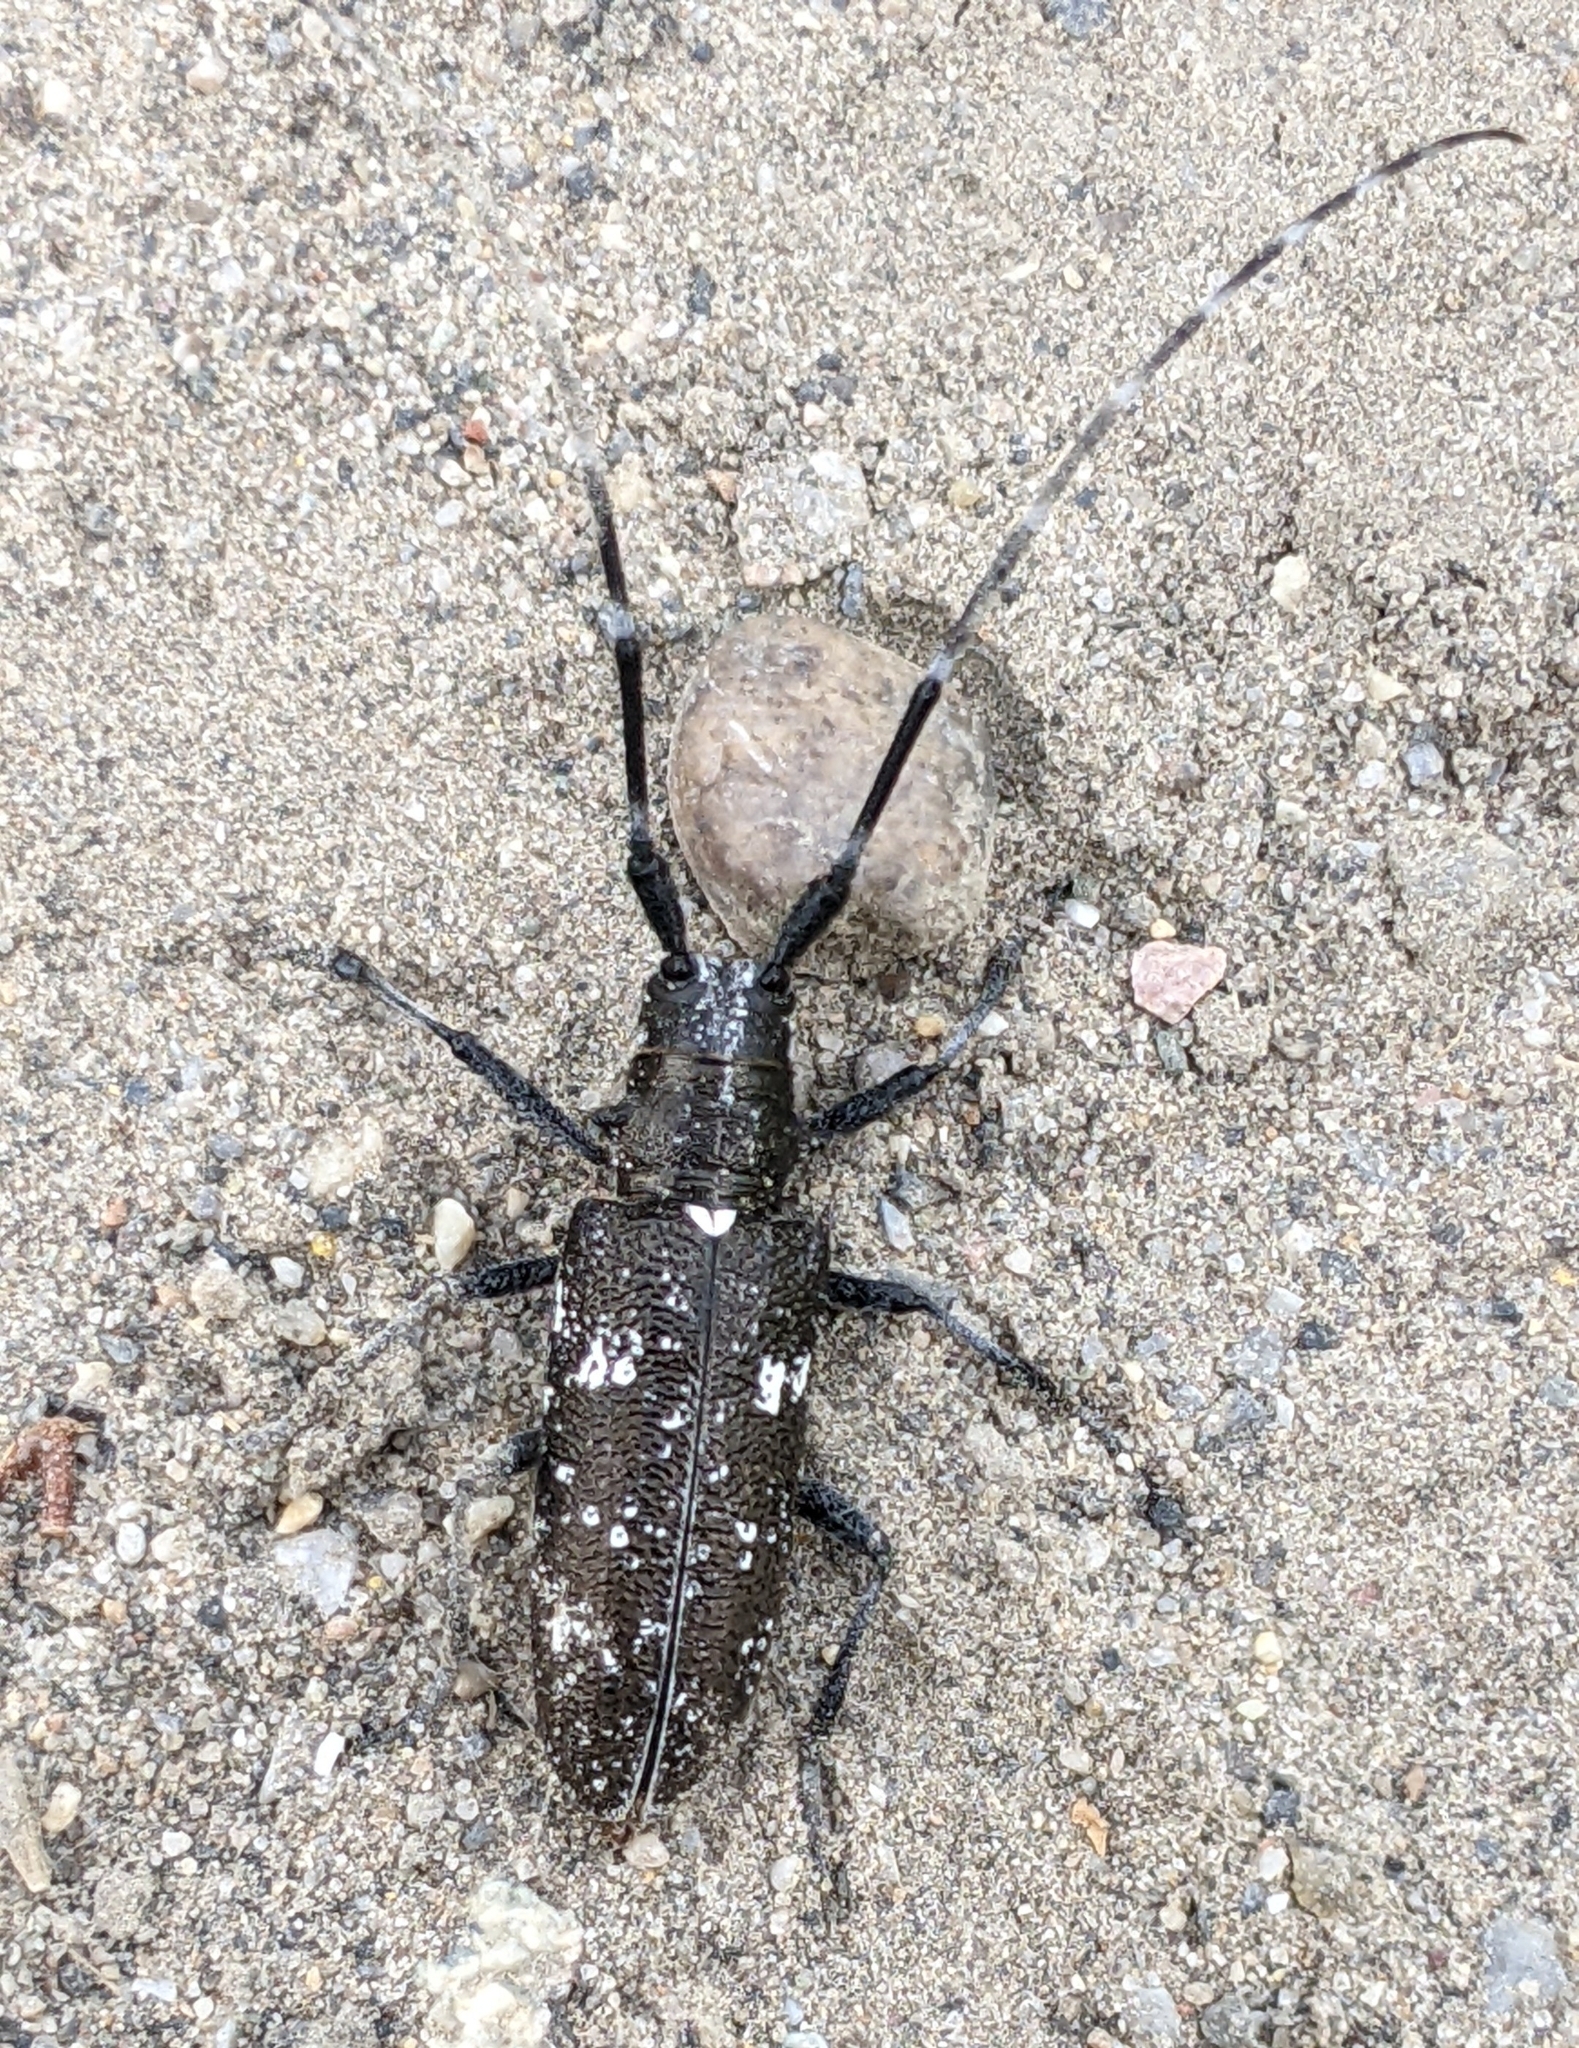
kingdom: Animalia
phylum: Arthropoda
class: Insecta
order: Coleoptera
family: Cerambycidae
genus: Monochamus
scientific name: Monochamus scutellatus
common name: White-spotted sawyer beetle
